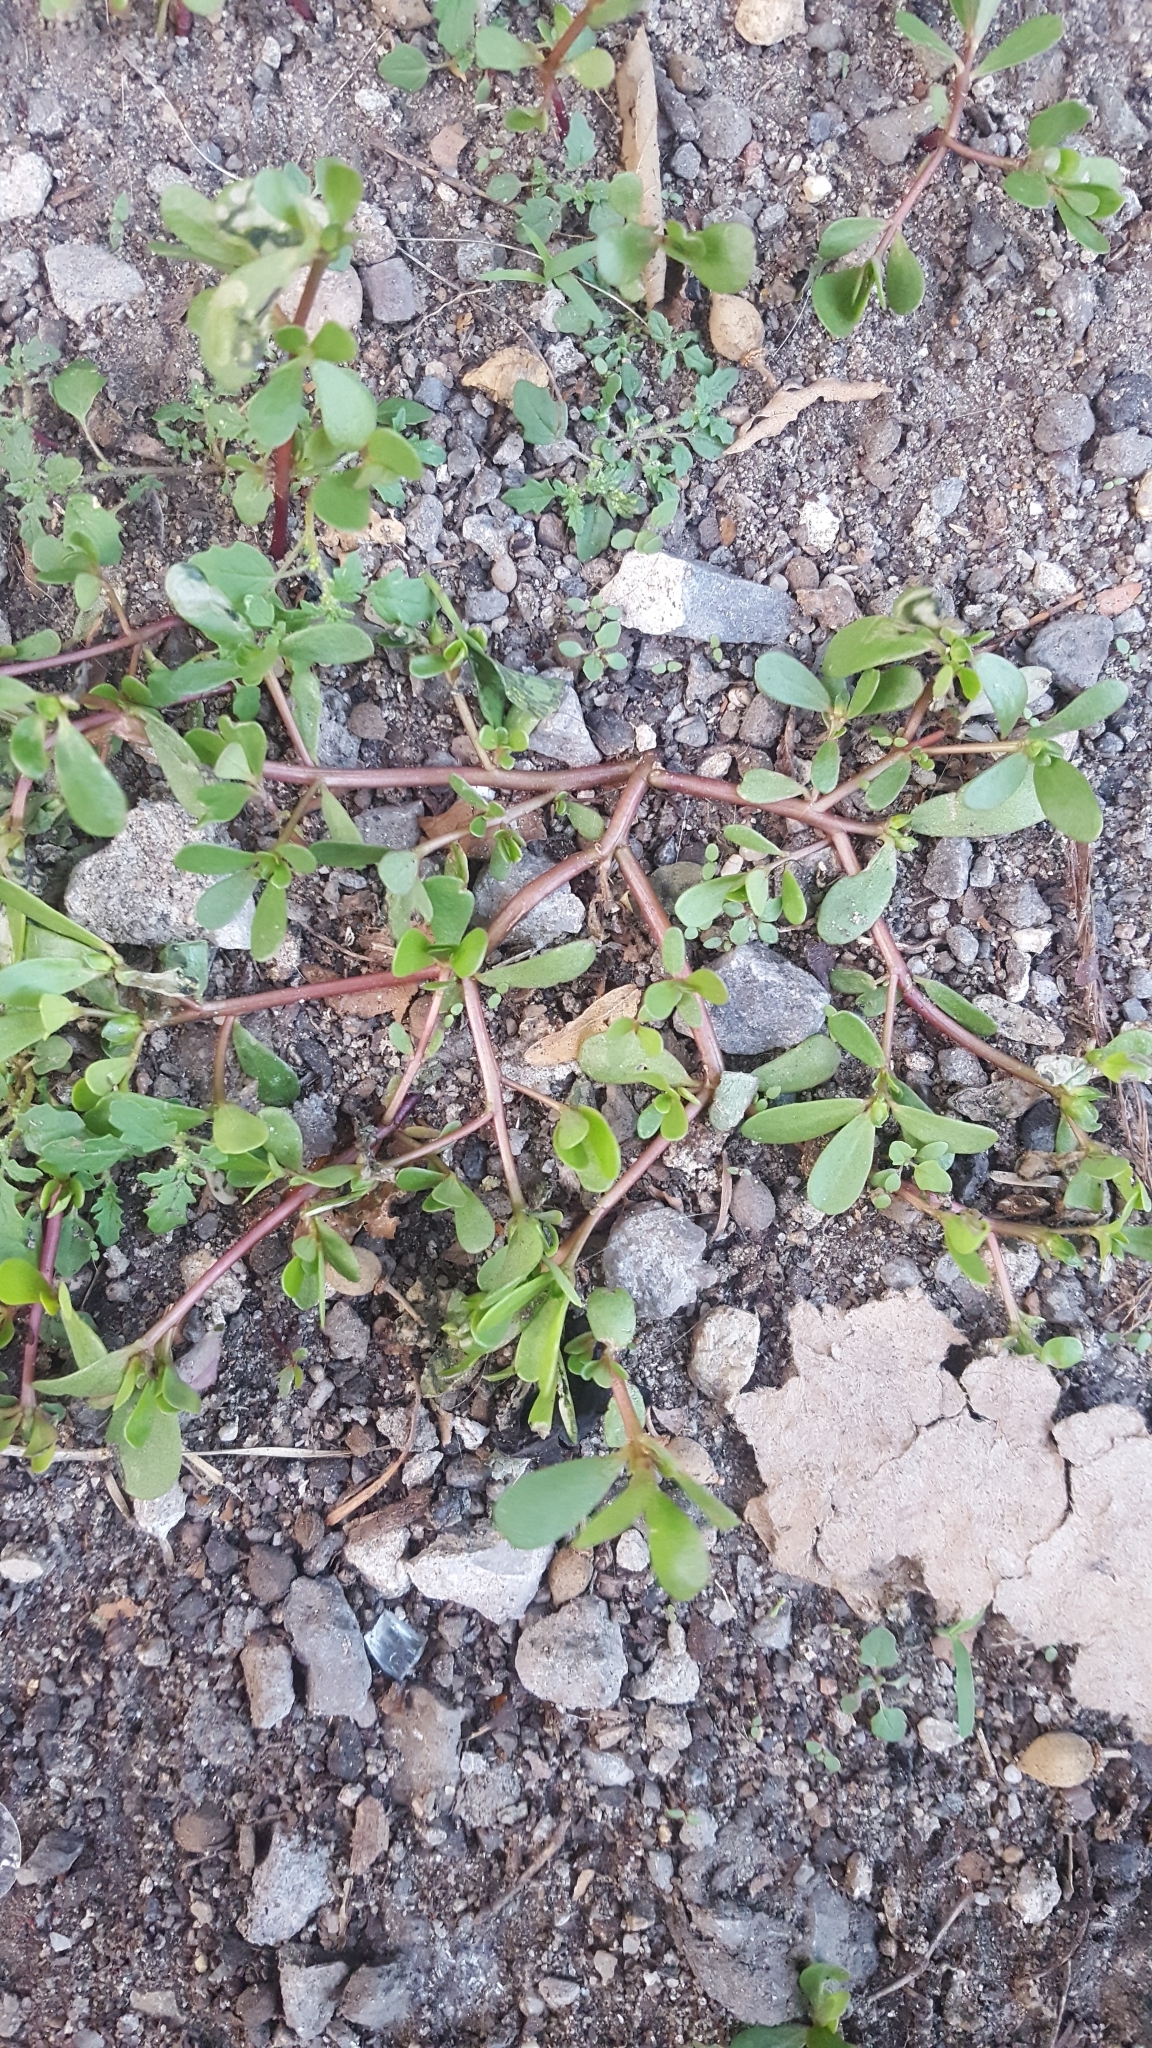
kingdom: Plantae
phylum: Tracheophyta
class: Magnoliopsida
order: Caryophyllales
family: Portulacaceae
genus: Portulaca
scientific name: Portulaca oleracea
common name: Common purslane
